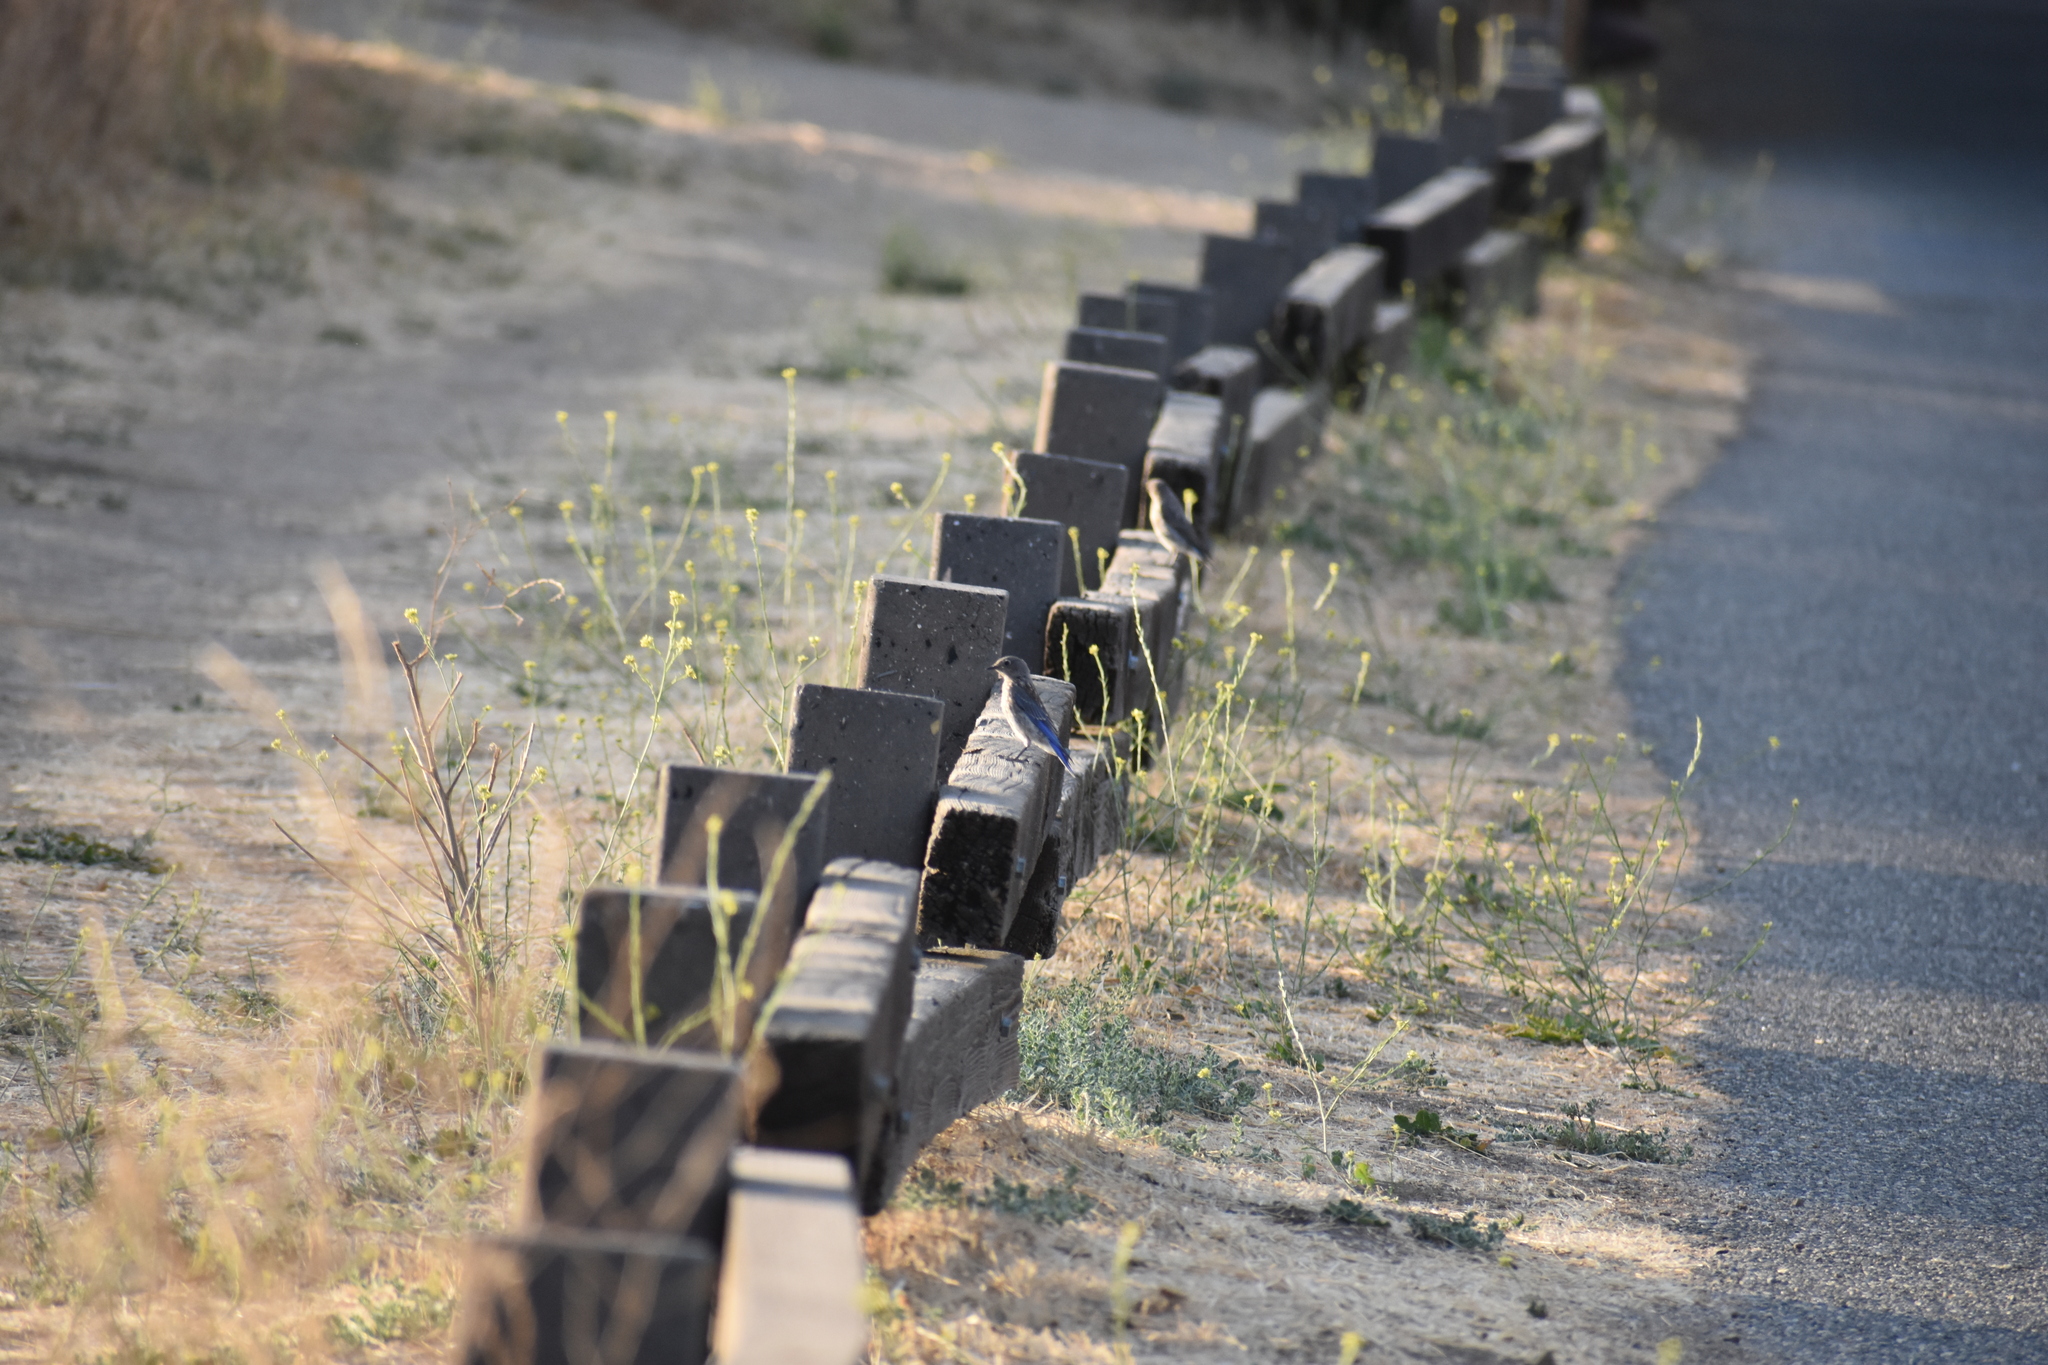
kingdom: Animalia
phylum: Chordata
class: Aves
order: Passeriformes
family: Turdidae
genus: Sialia
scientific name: Sialia mexicana
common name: Western bluebird
